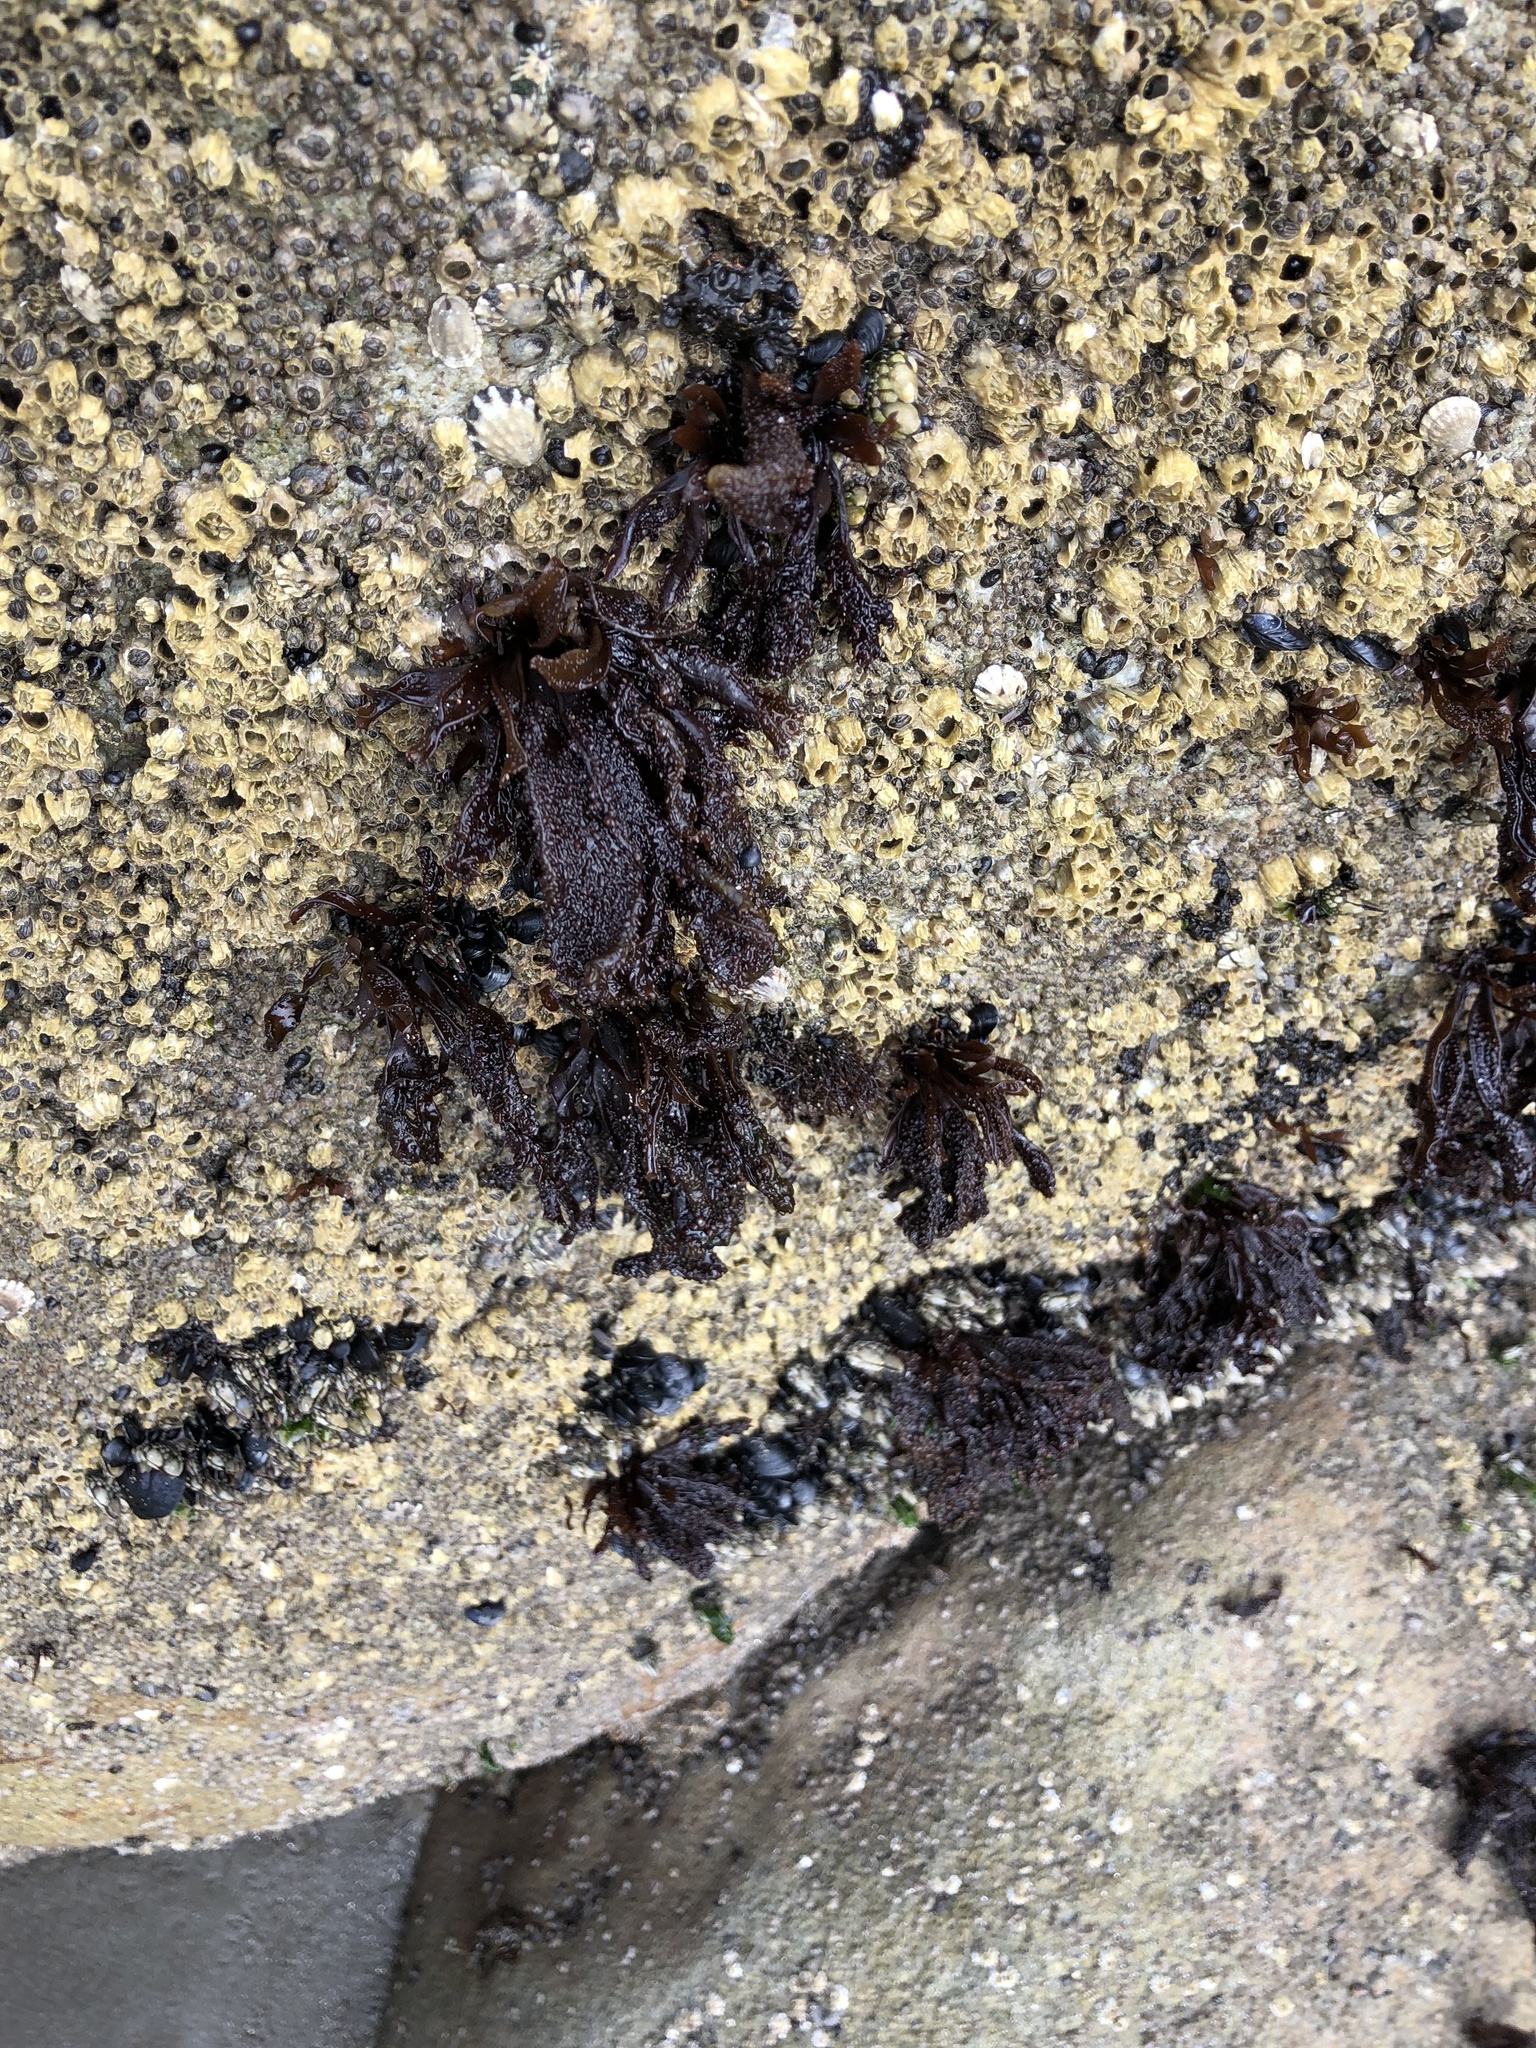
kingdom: Plantae
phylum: Rhodophyta
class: Florideophyceae
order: Gigartinales
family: Phyllophoraceae
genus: Mastocarpus
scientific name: Mastocarpus papillatus
